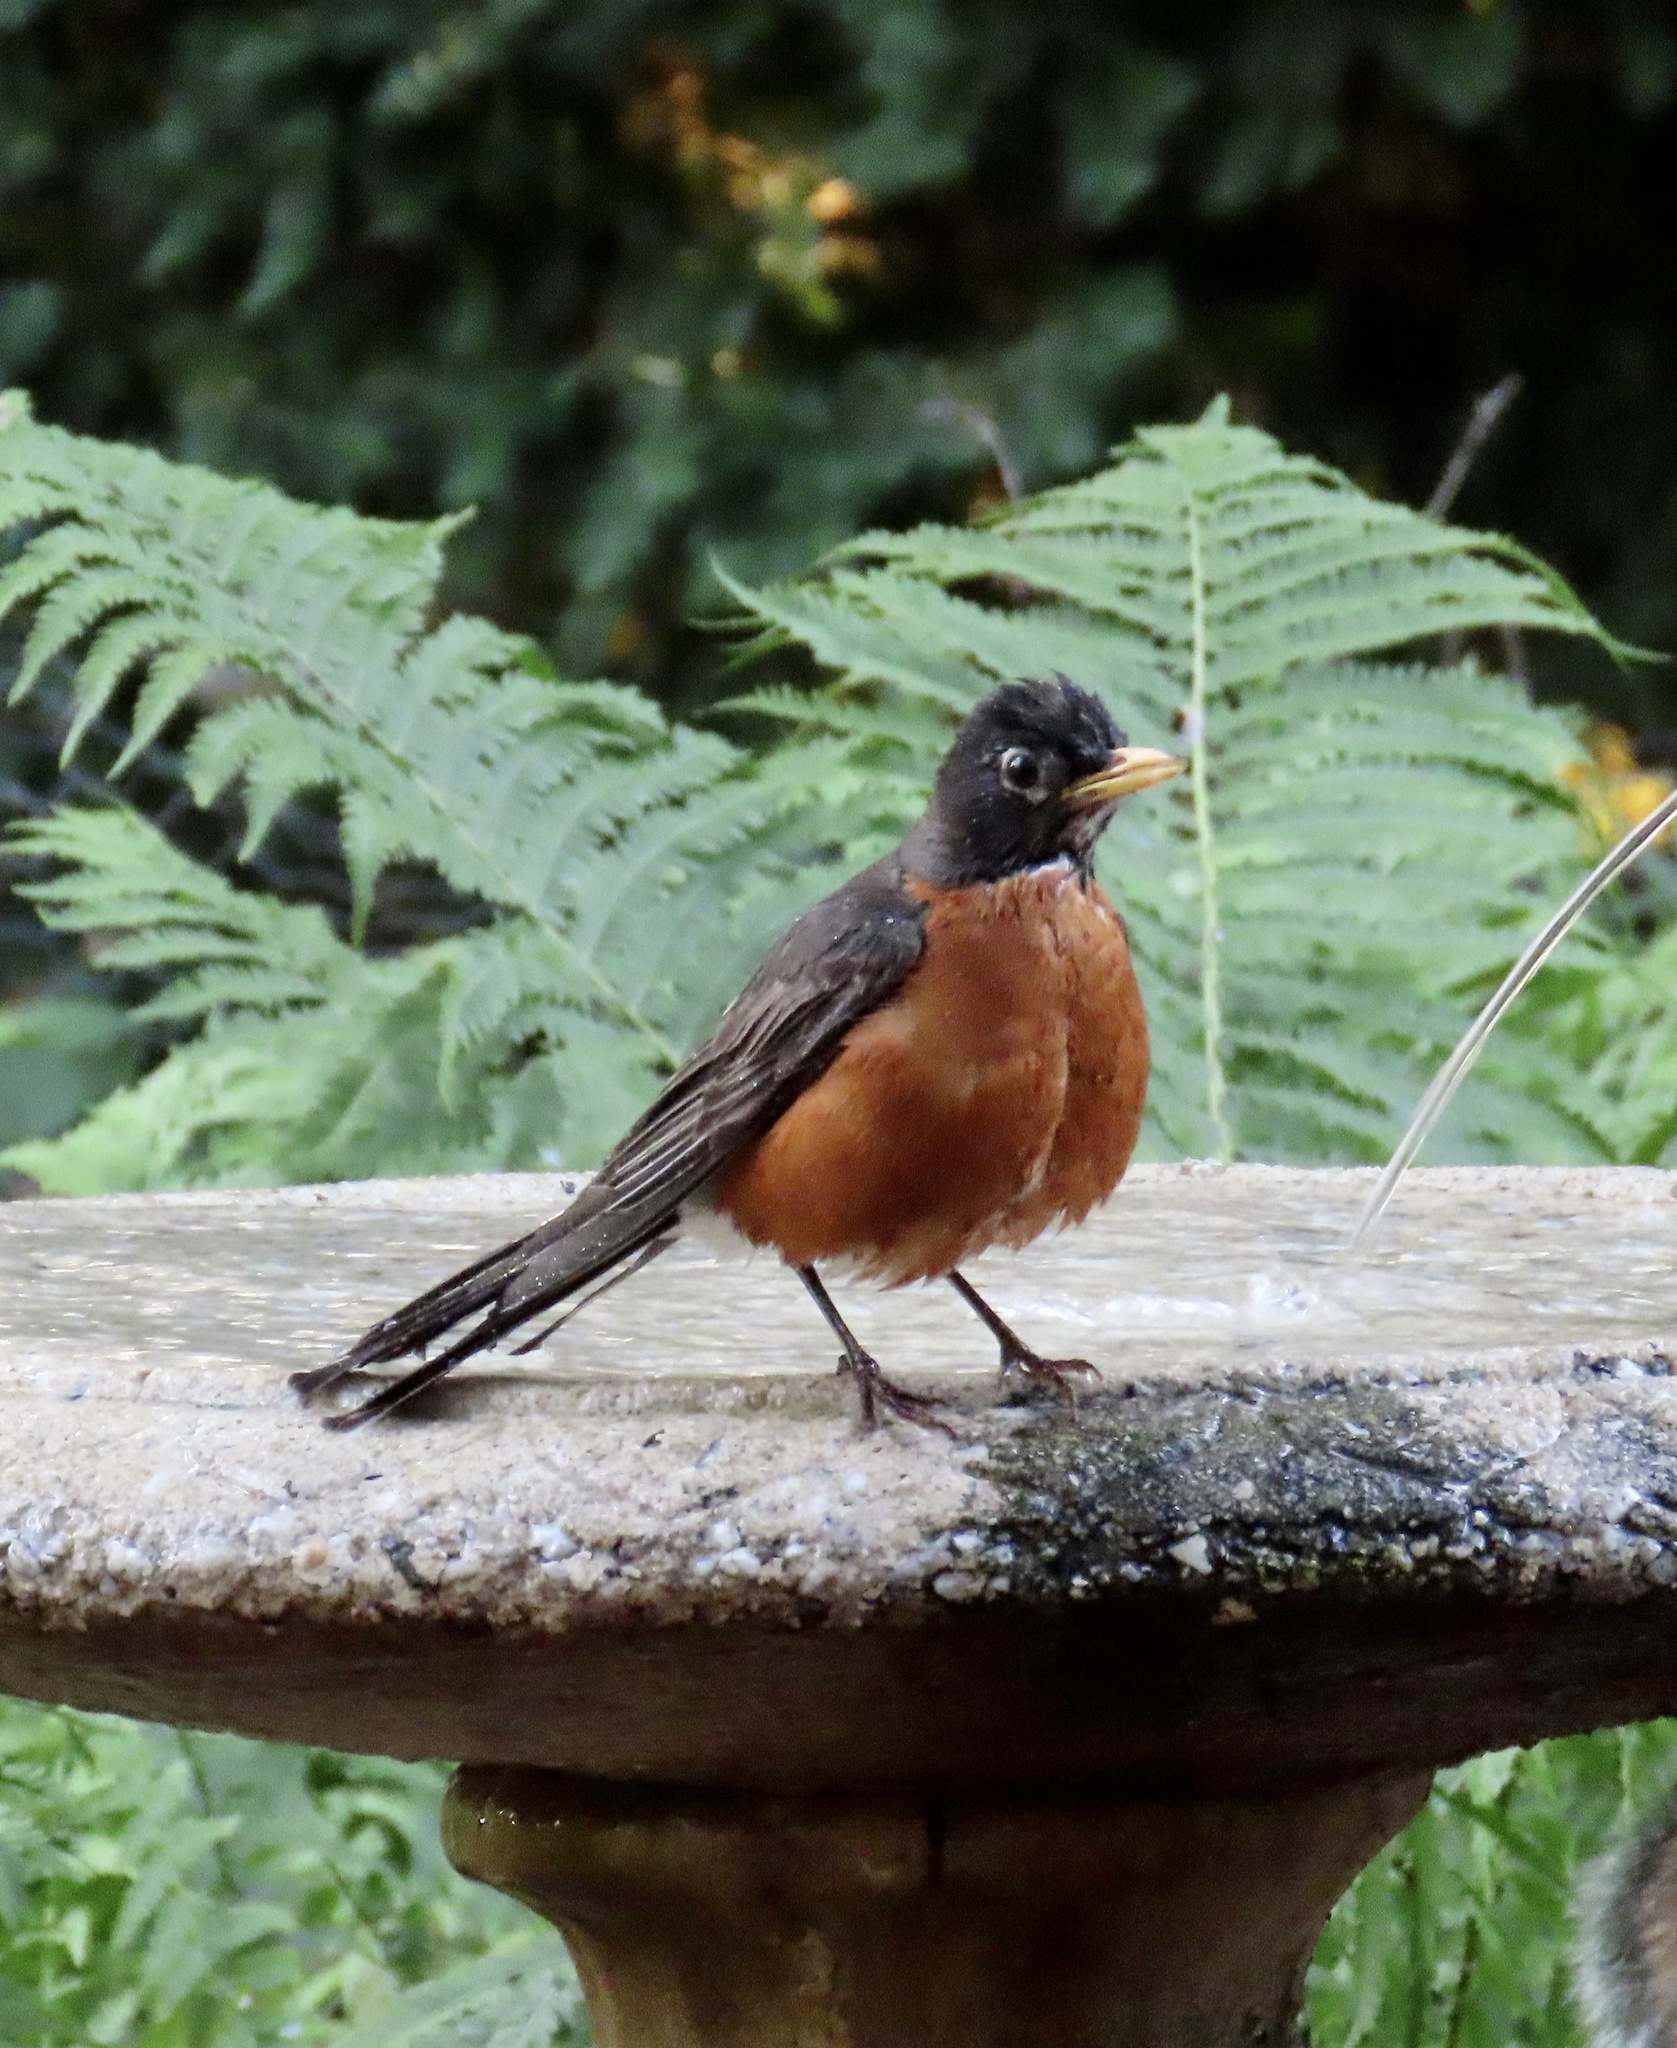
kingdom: Animalia
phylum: Chordata
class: Aves
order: Passeriformes
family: Turdidae
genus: Turdus
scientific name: Turdus migratorius
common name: American robin
